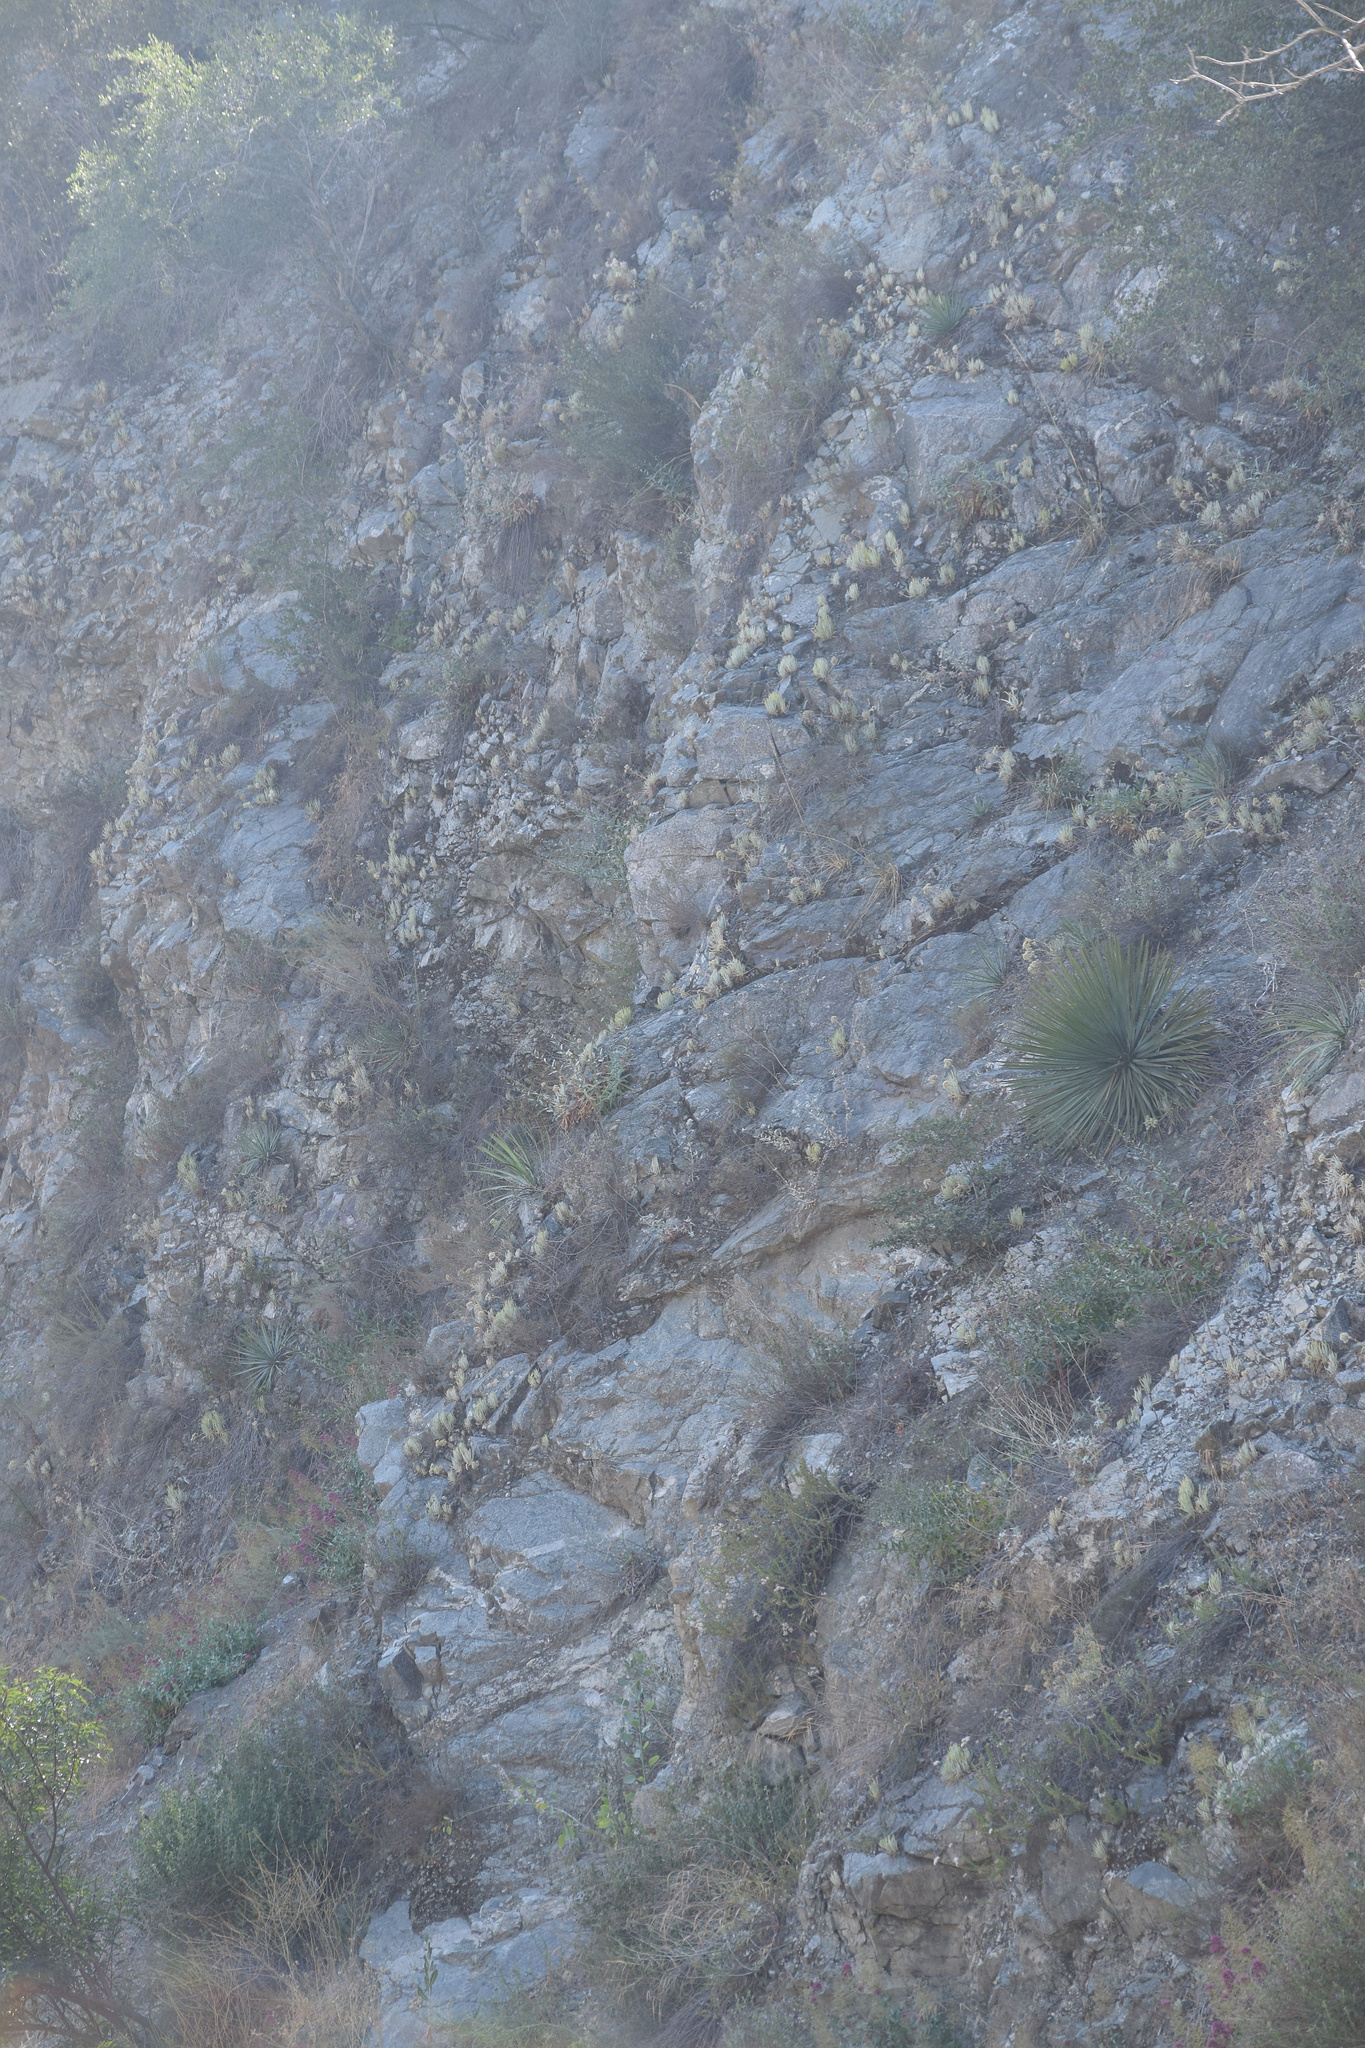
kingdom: Plantae
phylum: Tracheophyta
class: Magnoliopsida
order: Saxifragales
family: Crassulaceae
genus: Dudleya
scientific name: Dudleya densiflora
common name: San gabriel mountains dudleya
